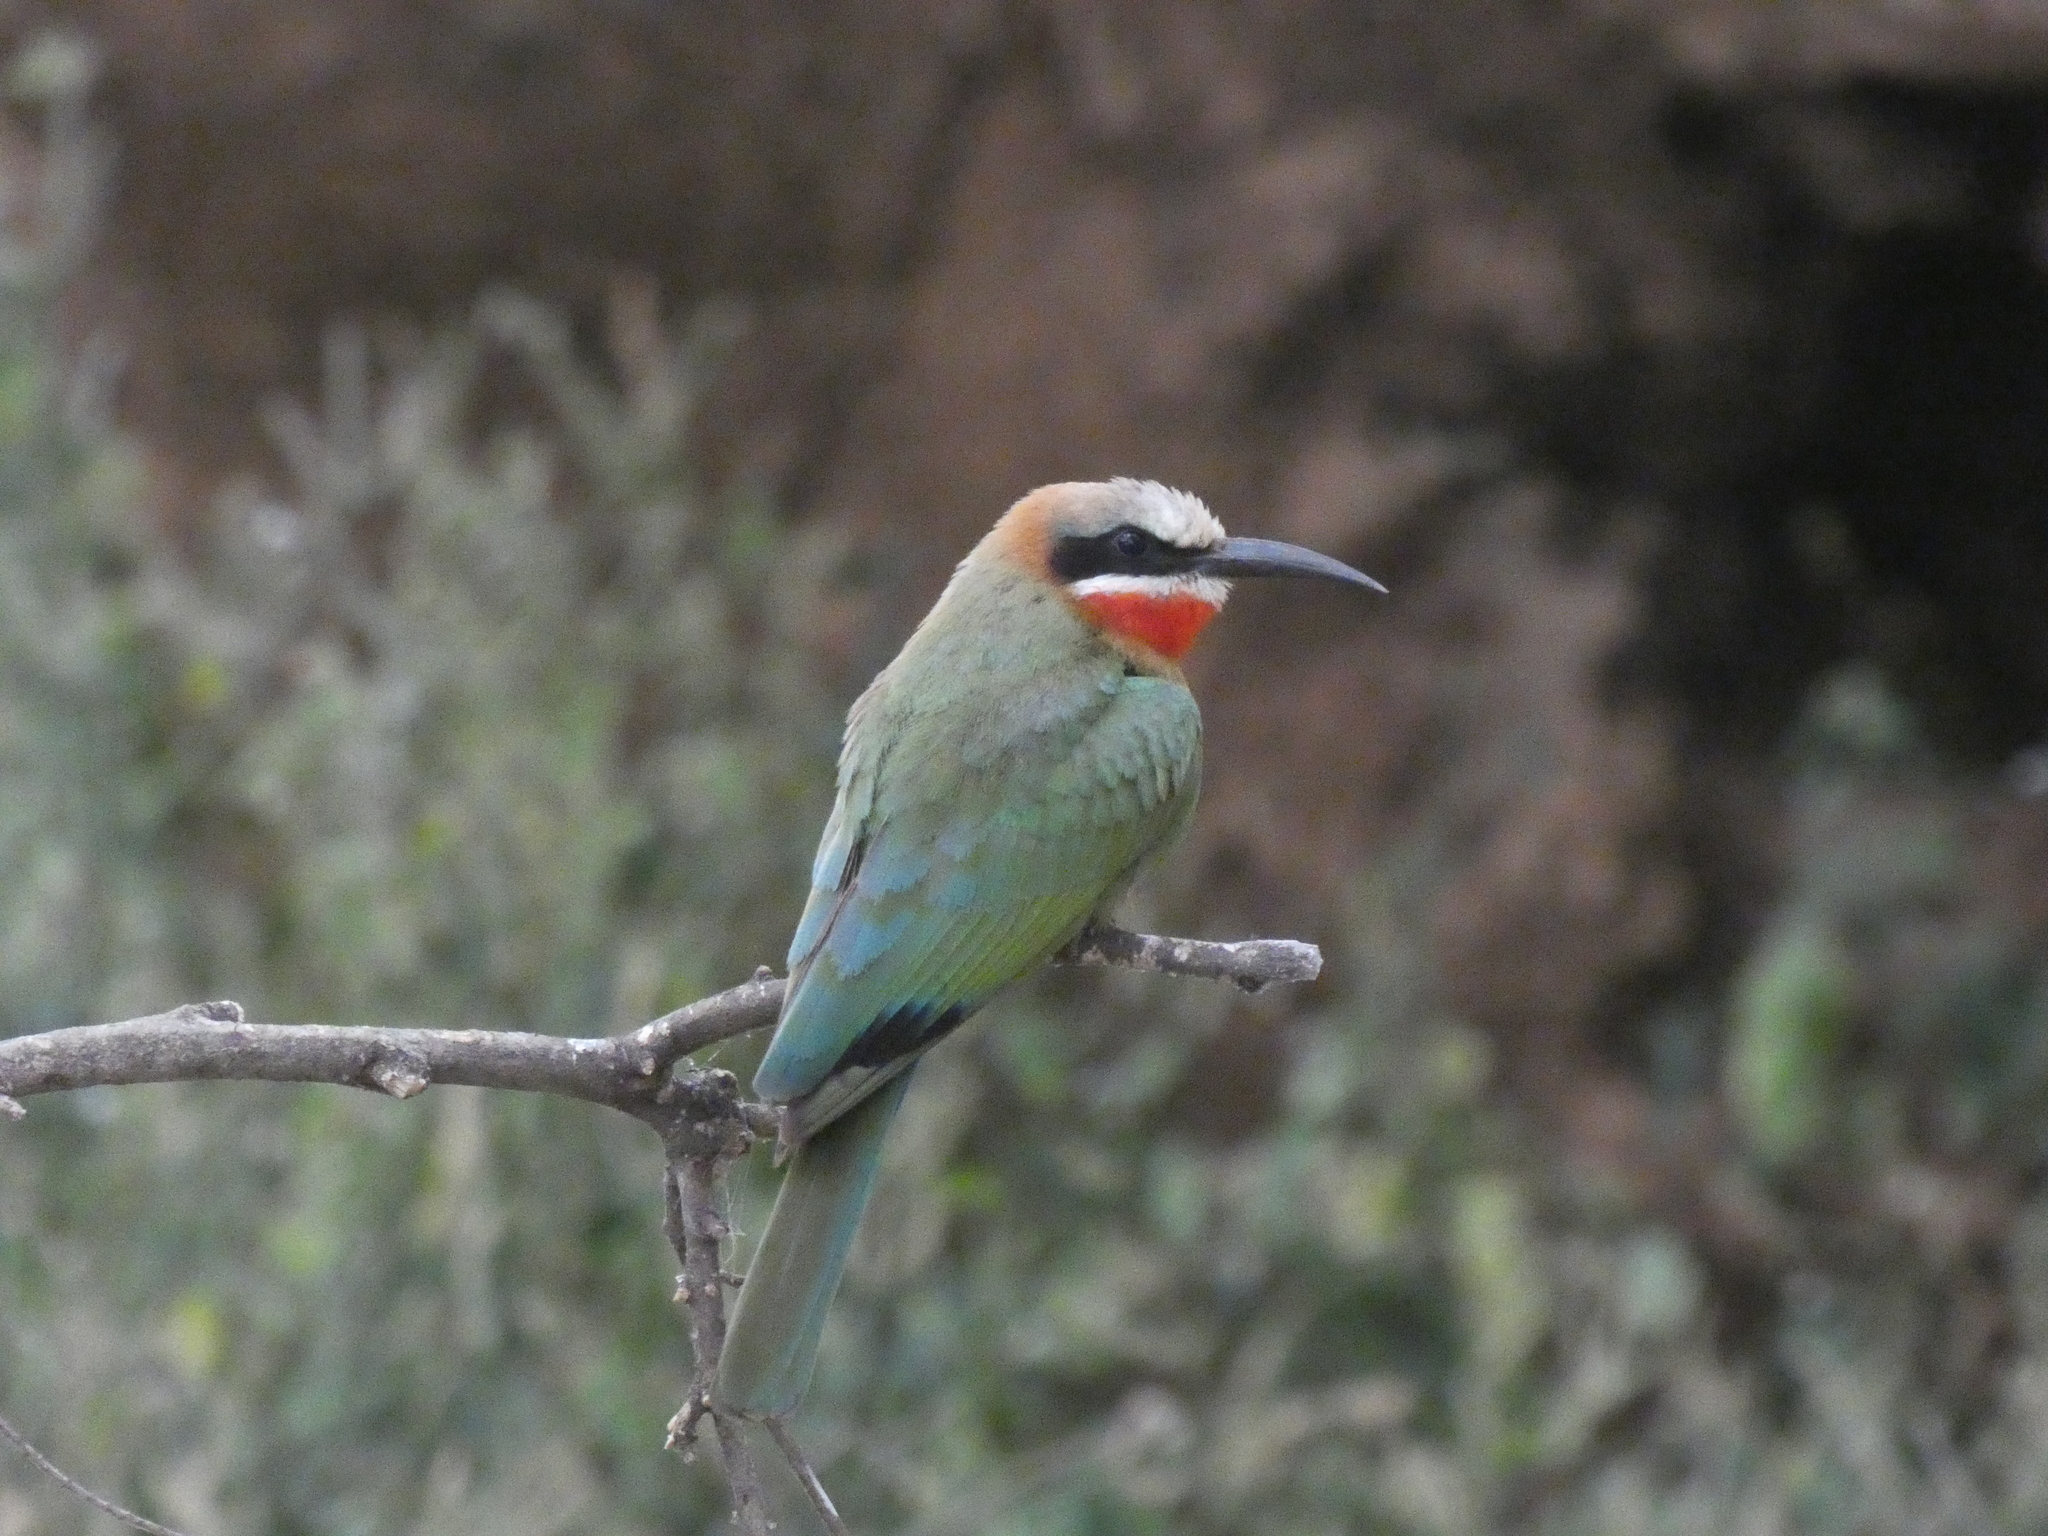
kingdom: Animalia
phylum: Chordata
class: Aves
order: Coraciiformes
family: Meropidae
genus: Merops
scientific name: Merops bullockoides
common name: White-fronted bee-eater
